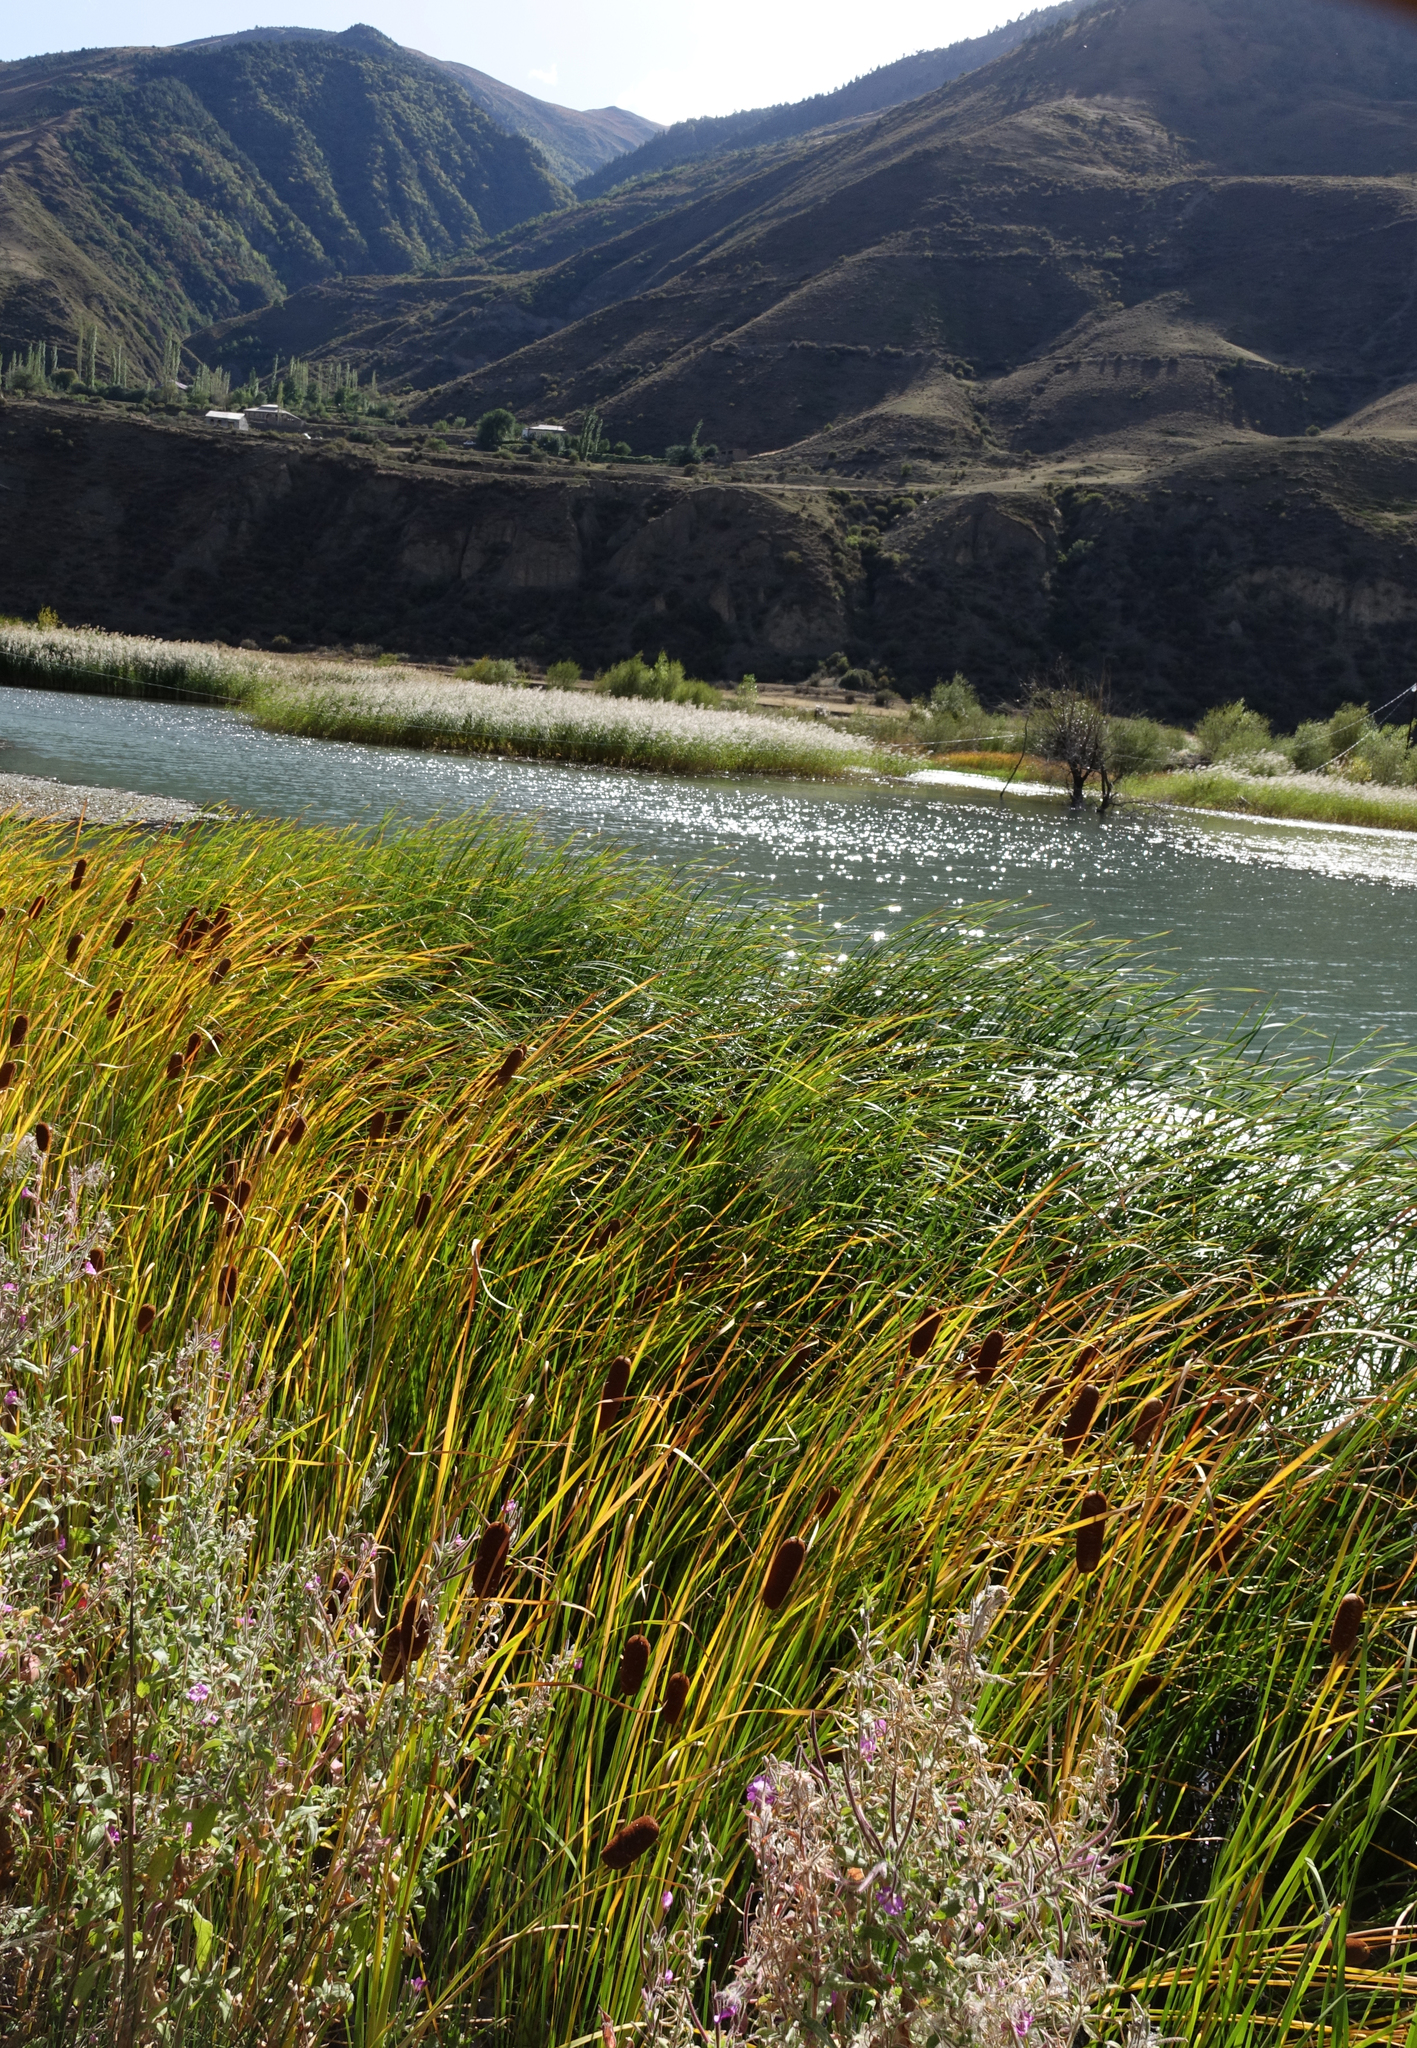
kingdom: Plantae
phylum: Tracheophyta
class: Liliopsida
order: Poales
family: Typhaceae
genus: Typha
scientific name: Typha laxmannii
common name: Laxman’s bulrush
